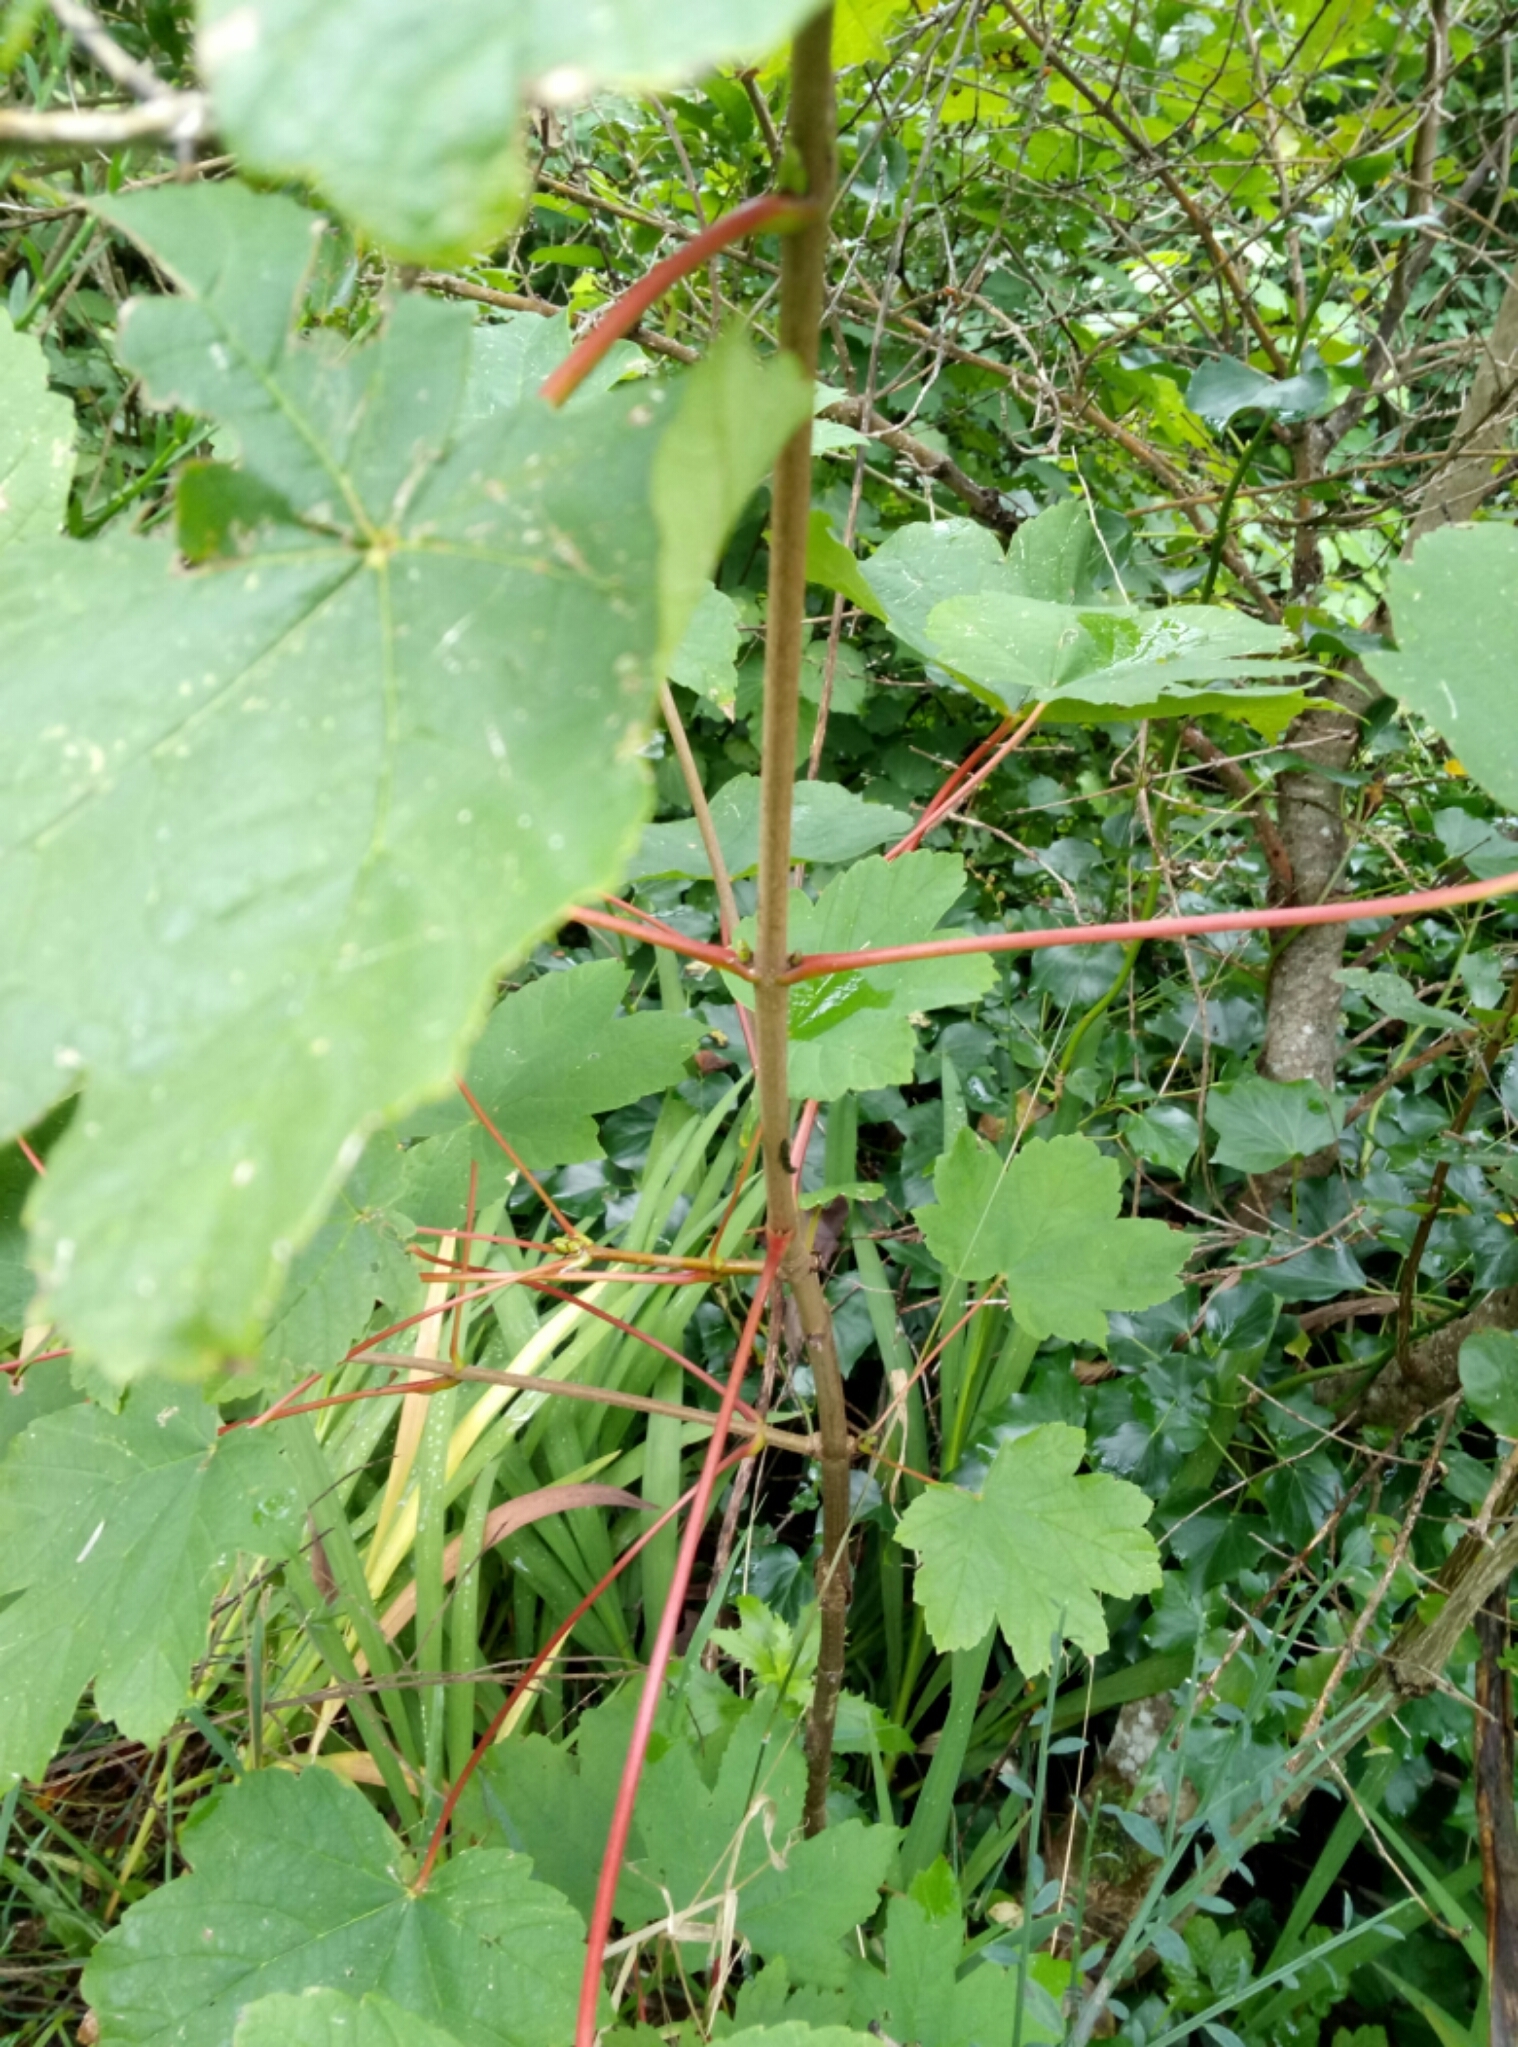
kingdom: Plantae
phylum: Tracheophyta
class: Magnoliopsida
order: Sapindales
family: Sapindaceae
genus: Acer
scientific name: Acer pseudoplatanus
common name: Sycamore
